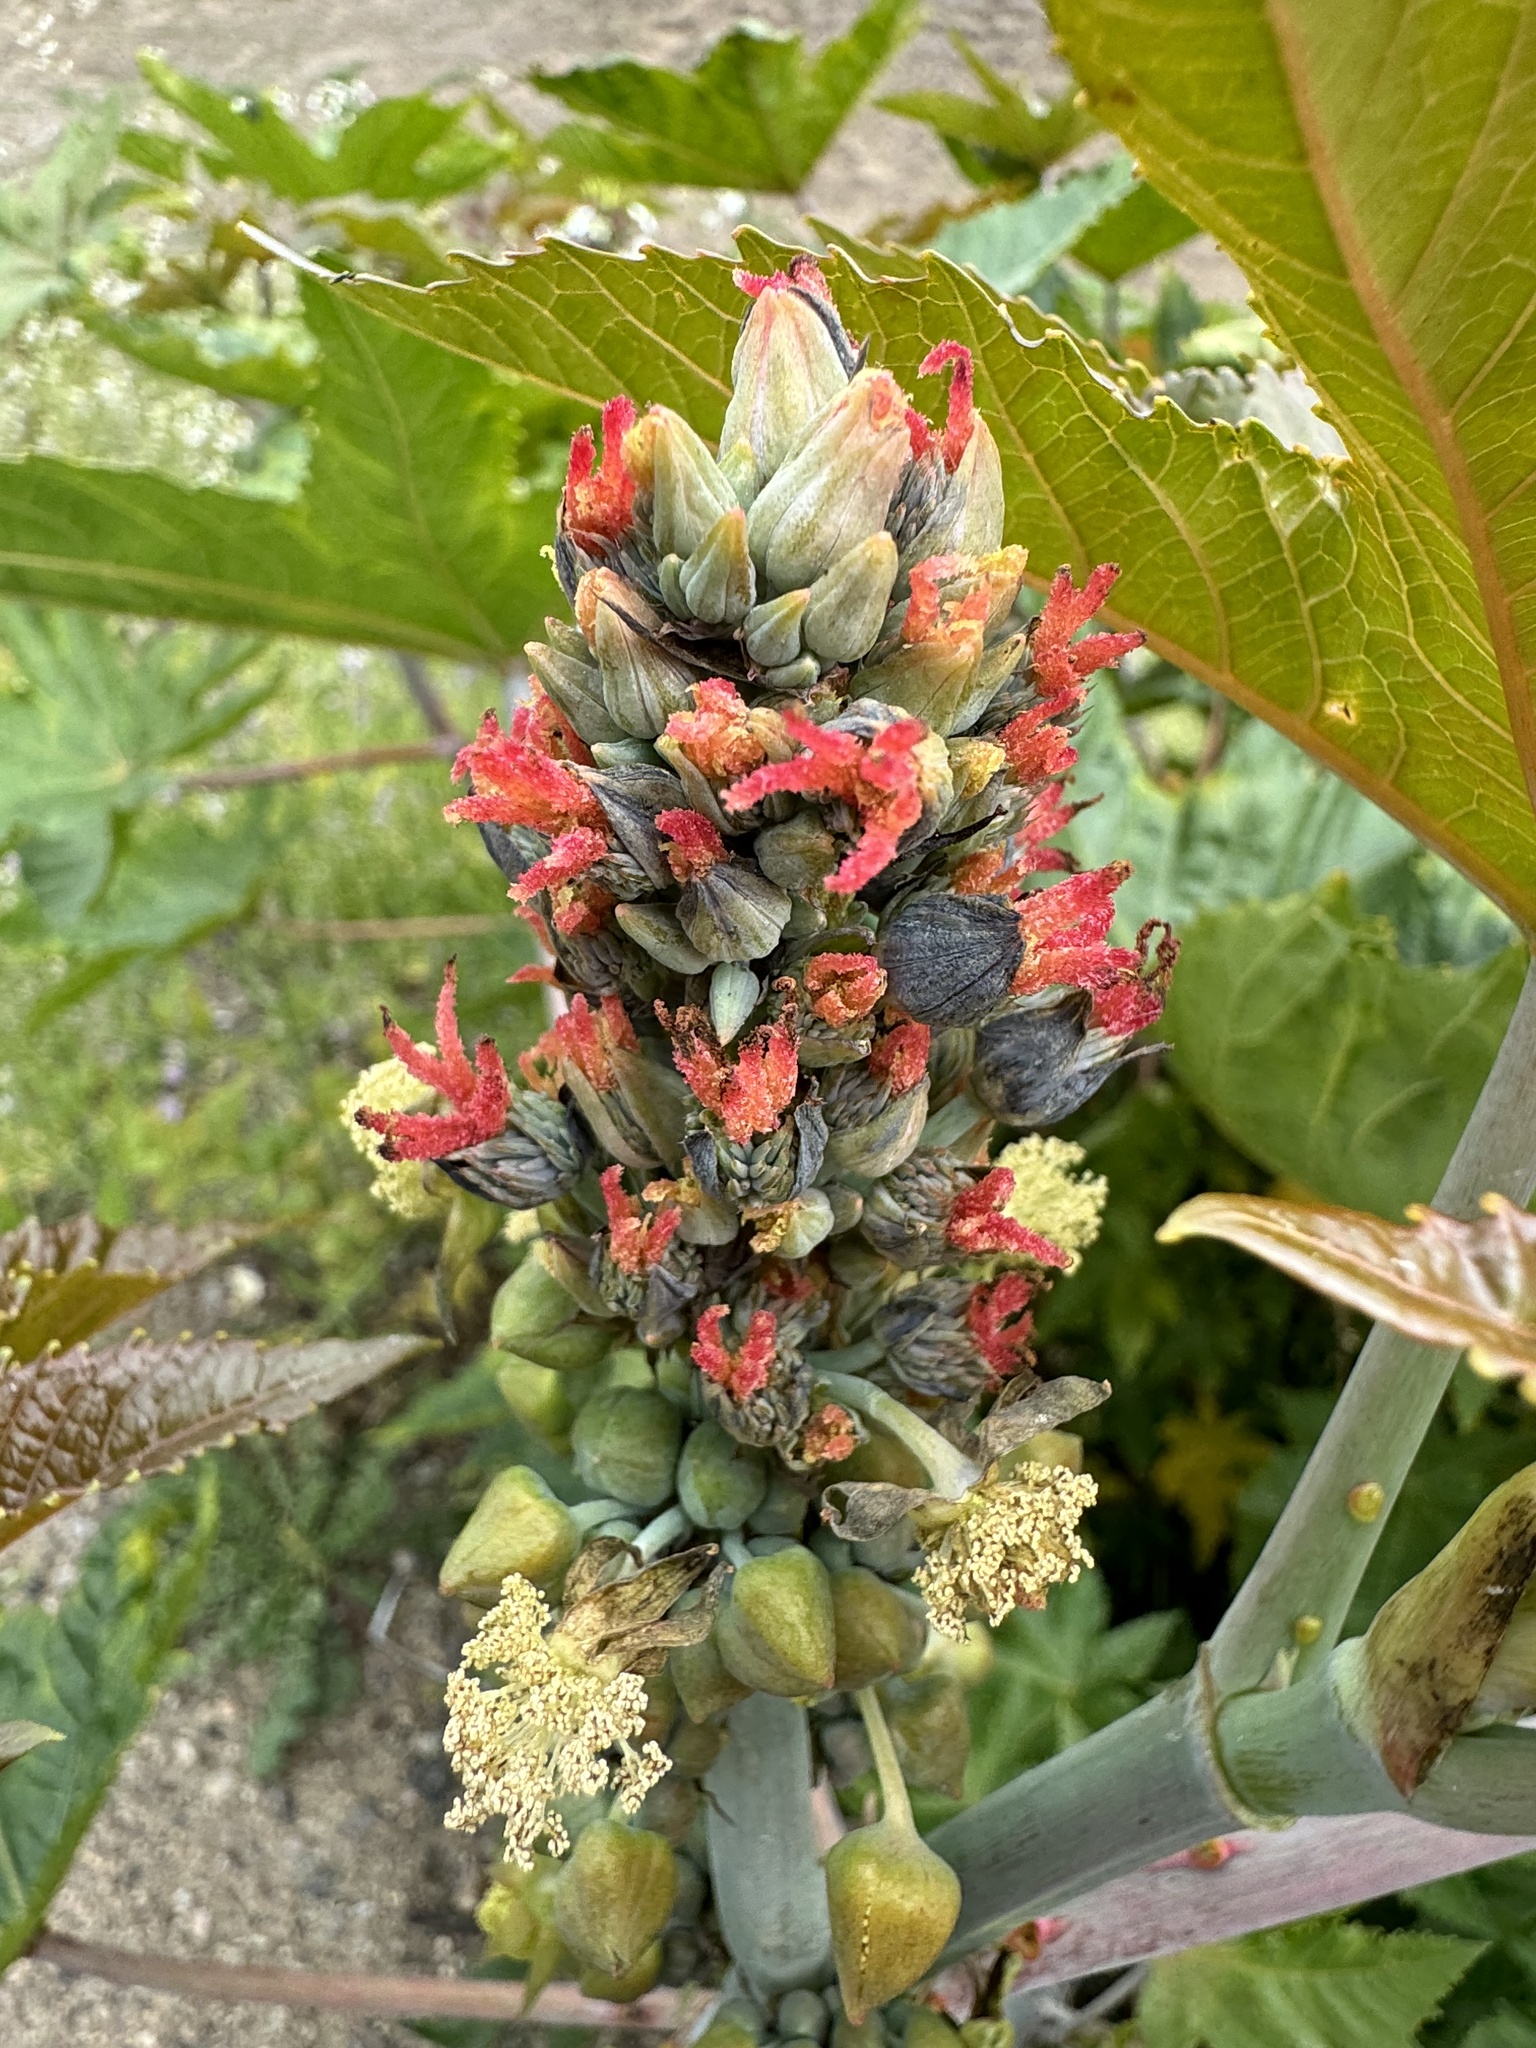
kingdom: Plantae
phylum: Tracheophyta
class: Magnoliopsida
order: Malpighiales
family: Euphorbiaceae
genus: Ricinus
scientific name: Ricinus communis
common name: Castor-oil-plant
